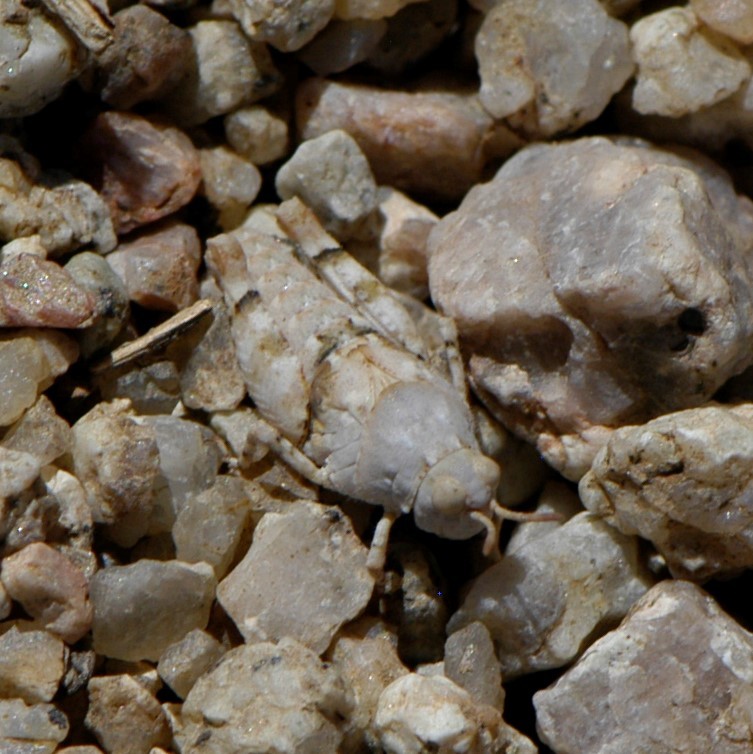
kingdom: Animalia
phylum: Arthropoda
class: Insecta
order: Orthoptera
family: Acrididae
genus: Cibolacris
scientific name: Cibolacris parviceps
